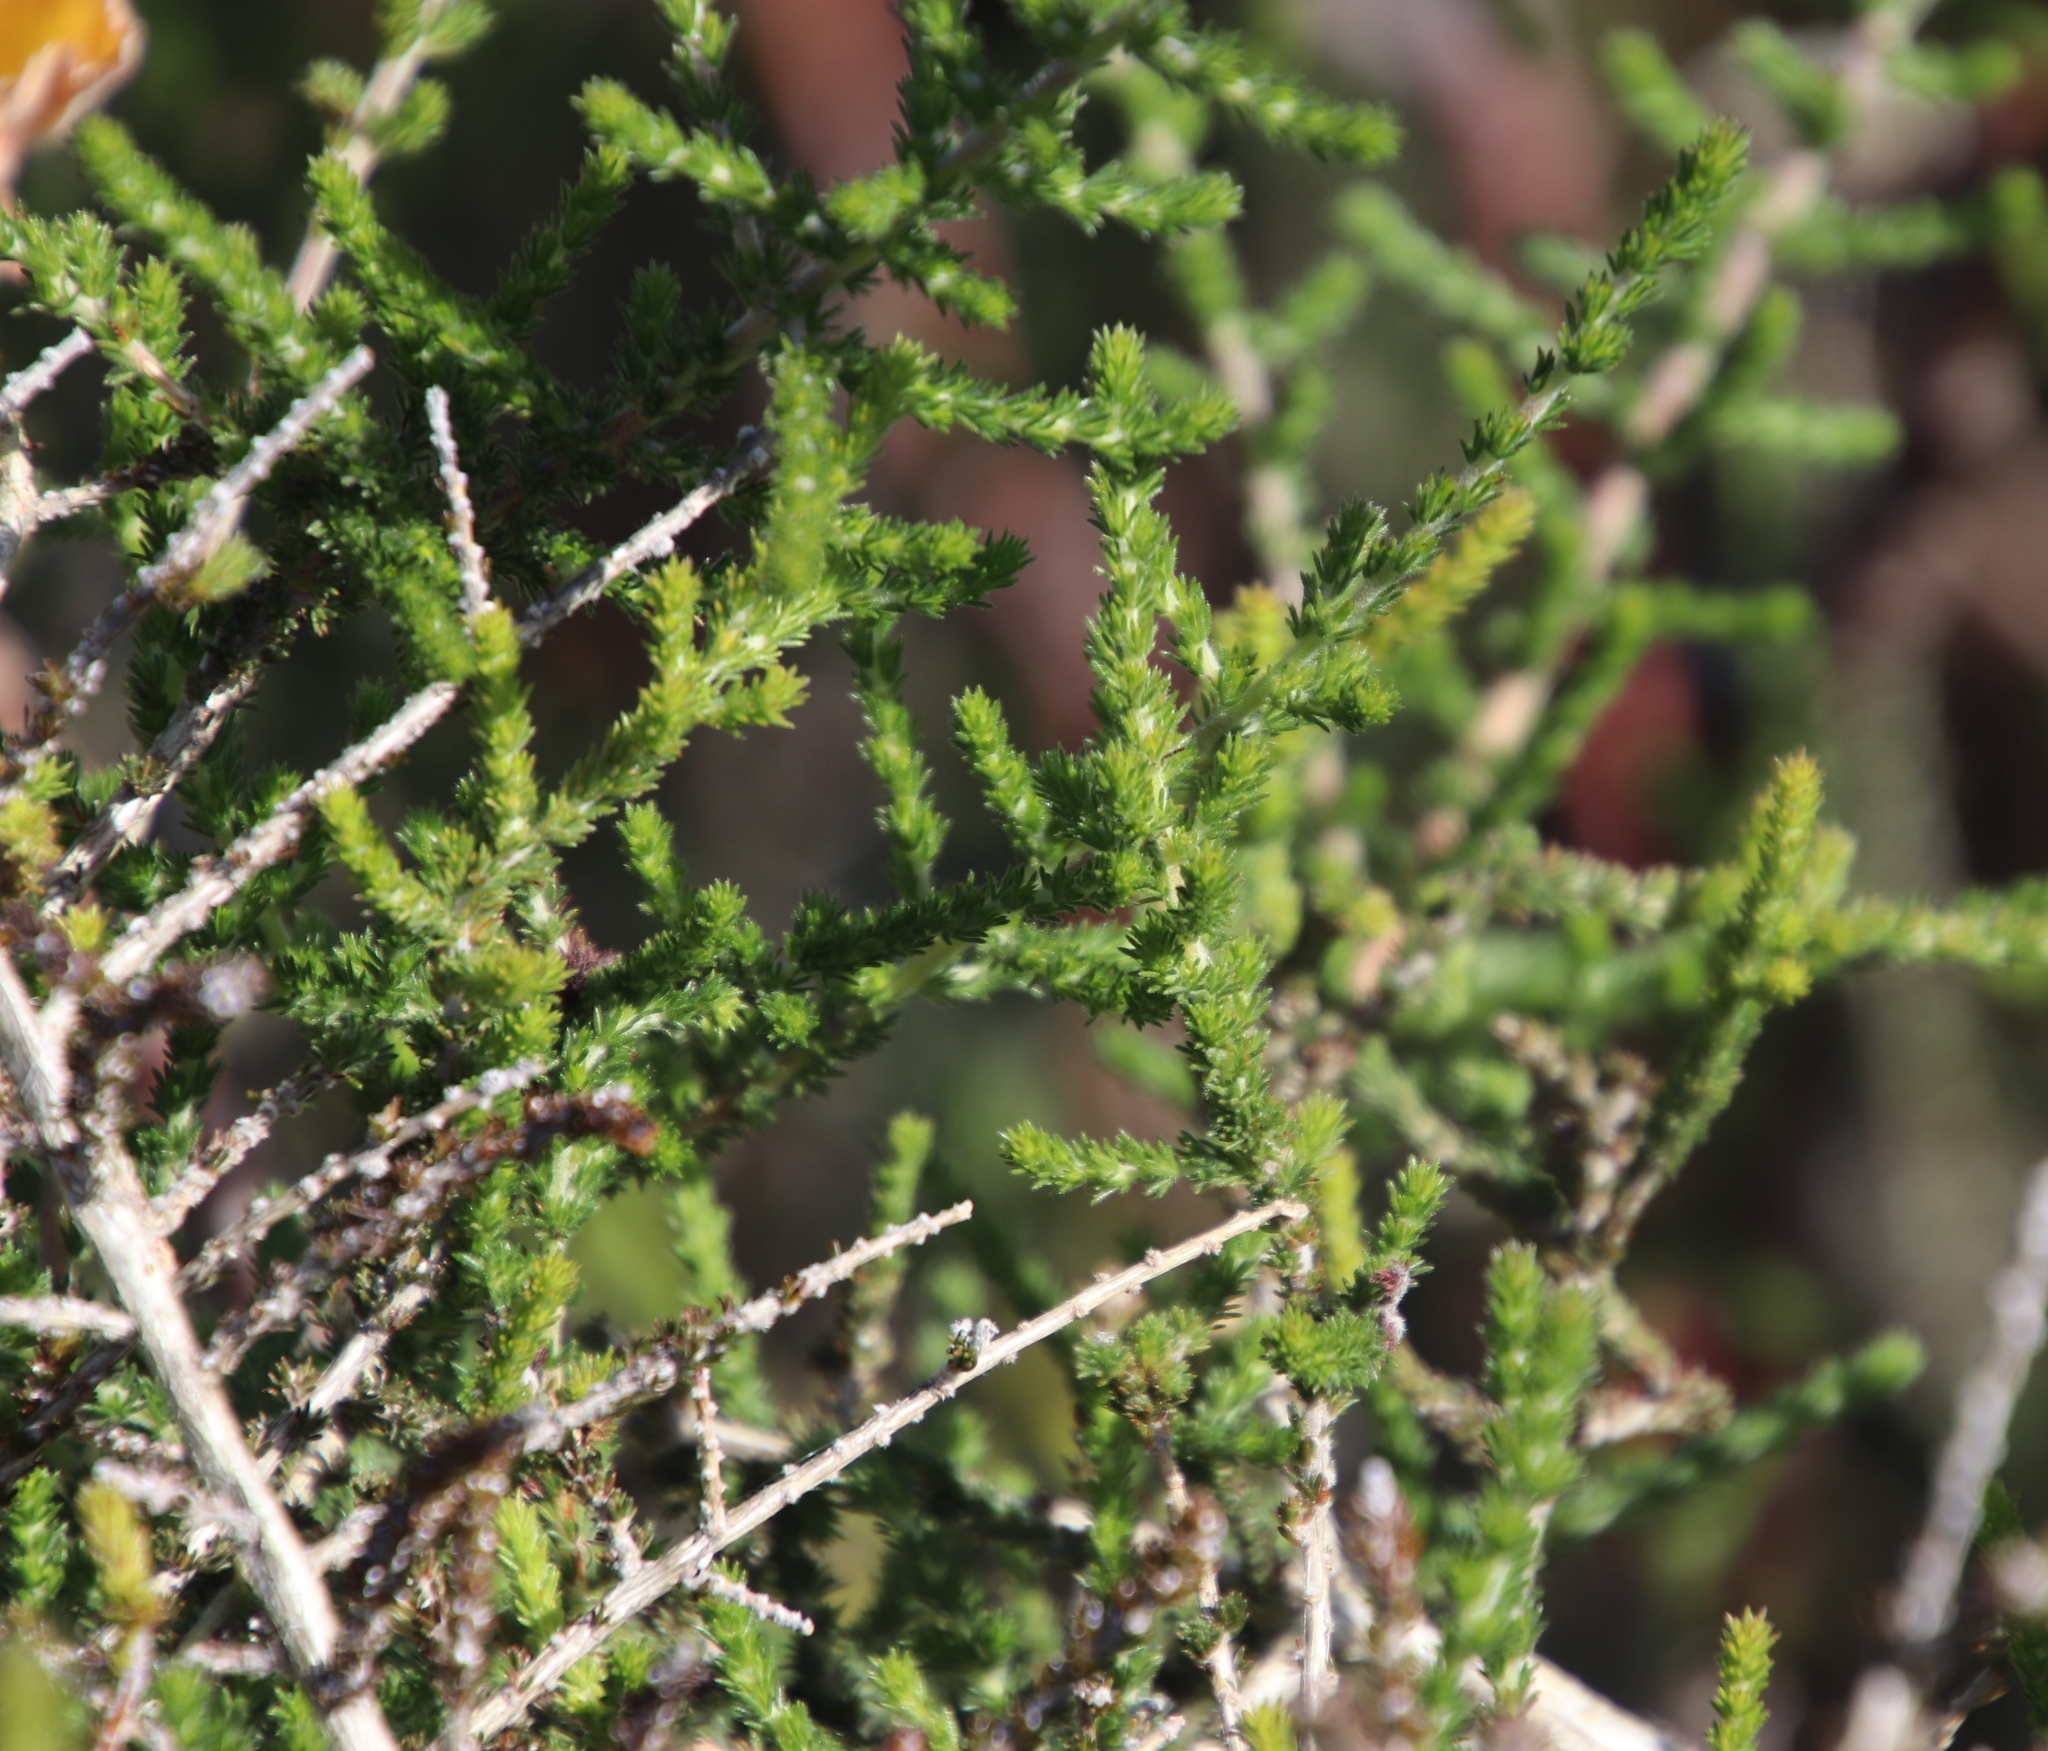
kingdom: Plantae
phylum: Tracheophyta
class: Magnoliopsida
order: Fabales
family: Fabaceae
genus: Aspalathus
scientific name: Aspalathus hispida
